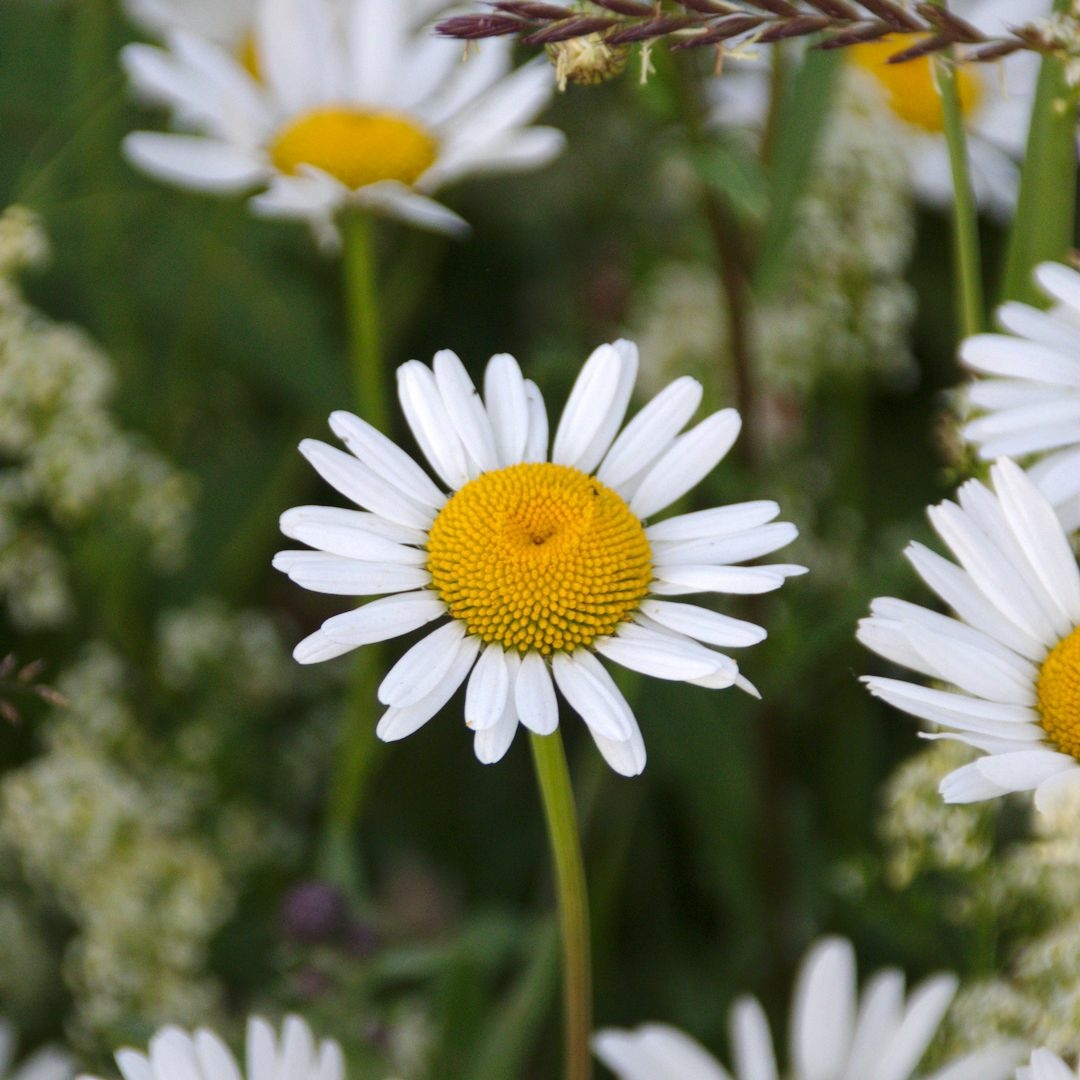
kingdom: Plantae
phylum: Tracheophyta
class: Magnoliopsida
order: Asterales
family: Asteraceae
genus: Leucanthemum
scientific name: Leucanthemum vulgare
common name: Oxeye daisy
